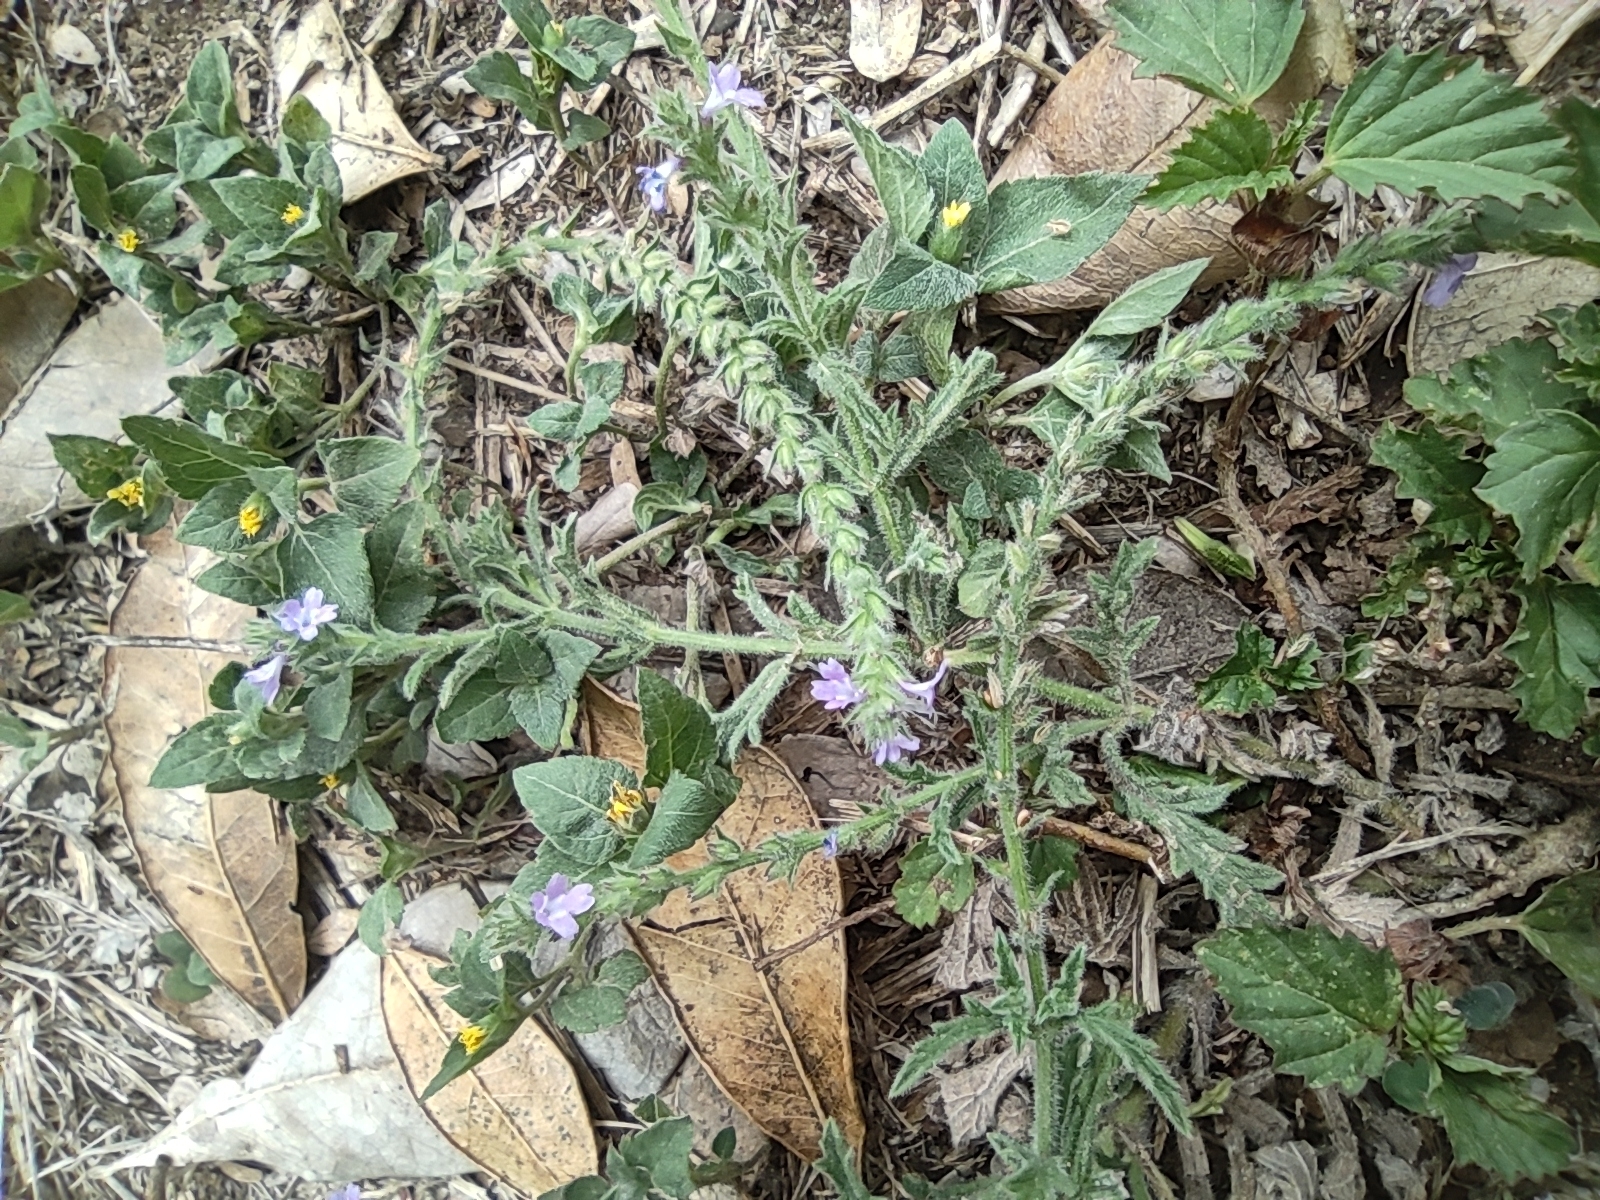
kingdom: Plantae
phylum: Tracheophyta
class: Magnoliopsida
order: Lamiales
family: Verbenaceae
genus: Verbena
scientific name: Verbena canescens
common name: Gray vervain
